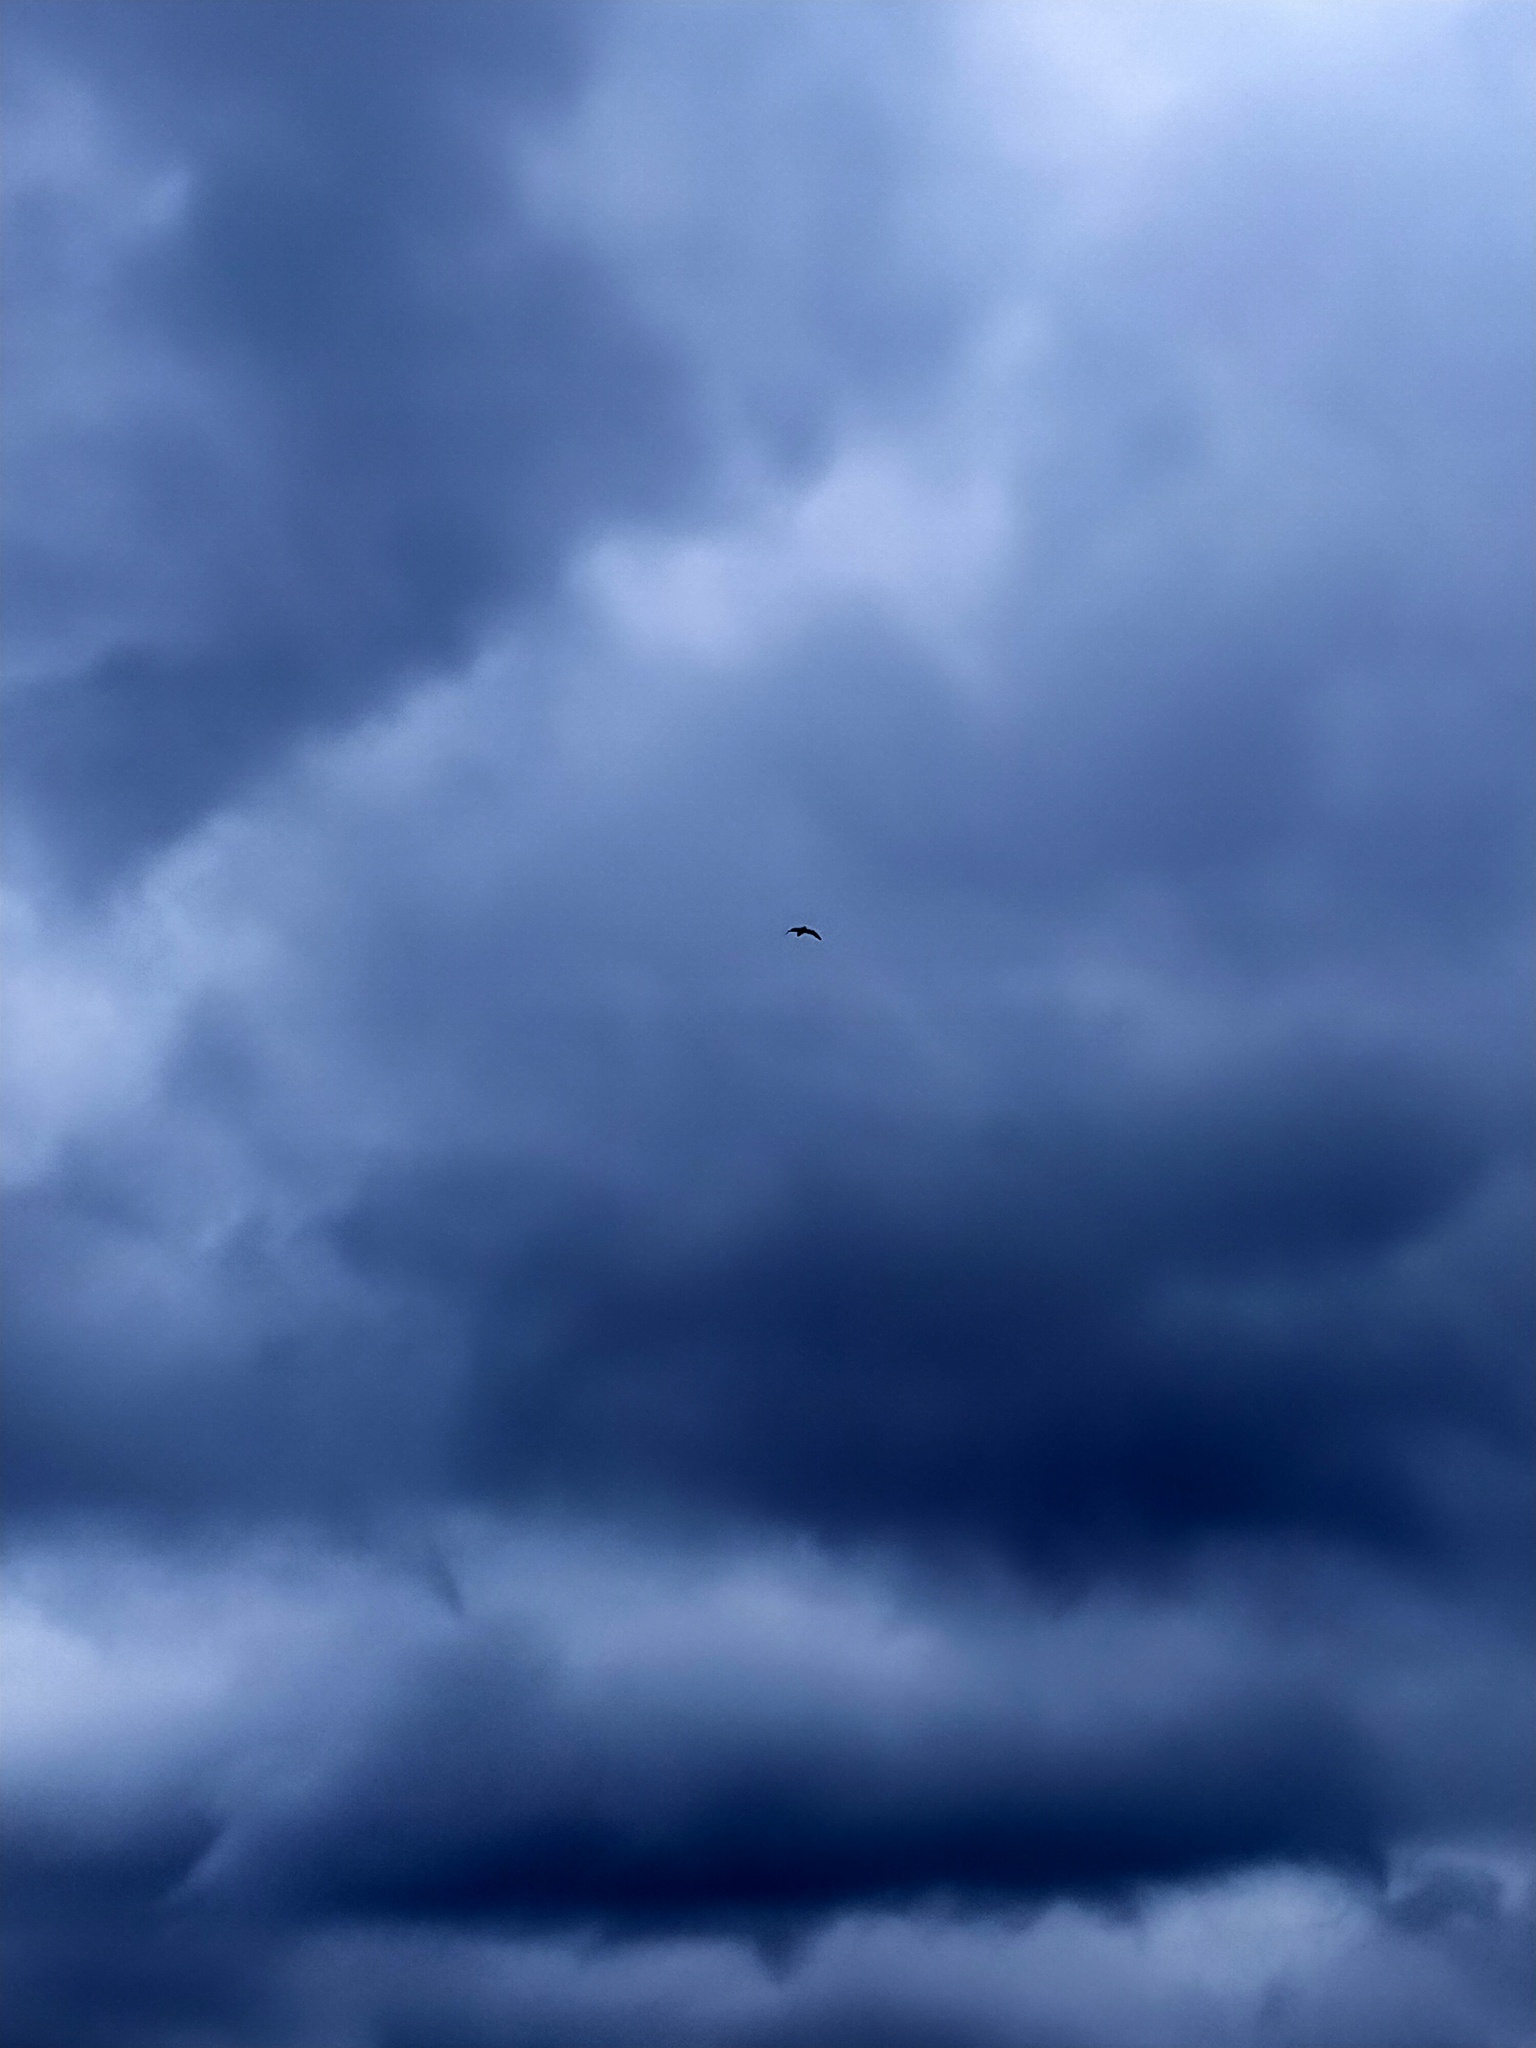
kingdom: Animalia
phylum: Chordata
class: Aves
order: Procellariiformes
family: Procellariidae
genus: Puffinus
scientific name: Puffinus griseus
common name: Sooty shearwater
